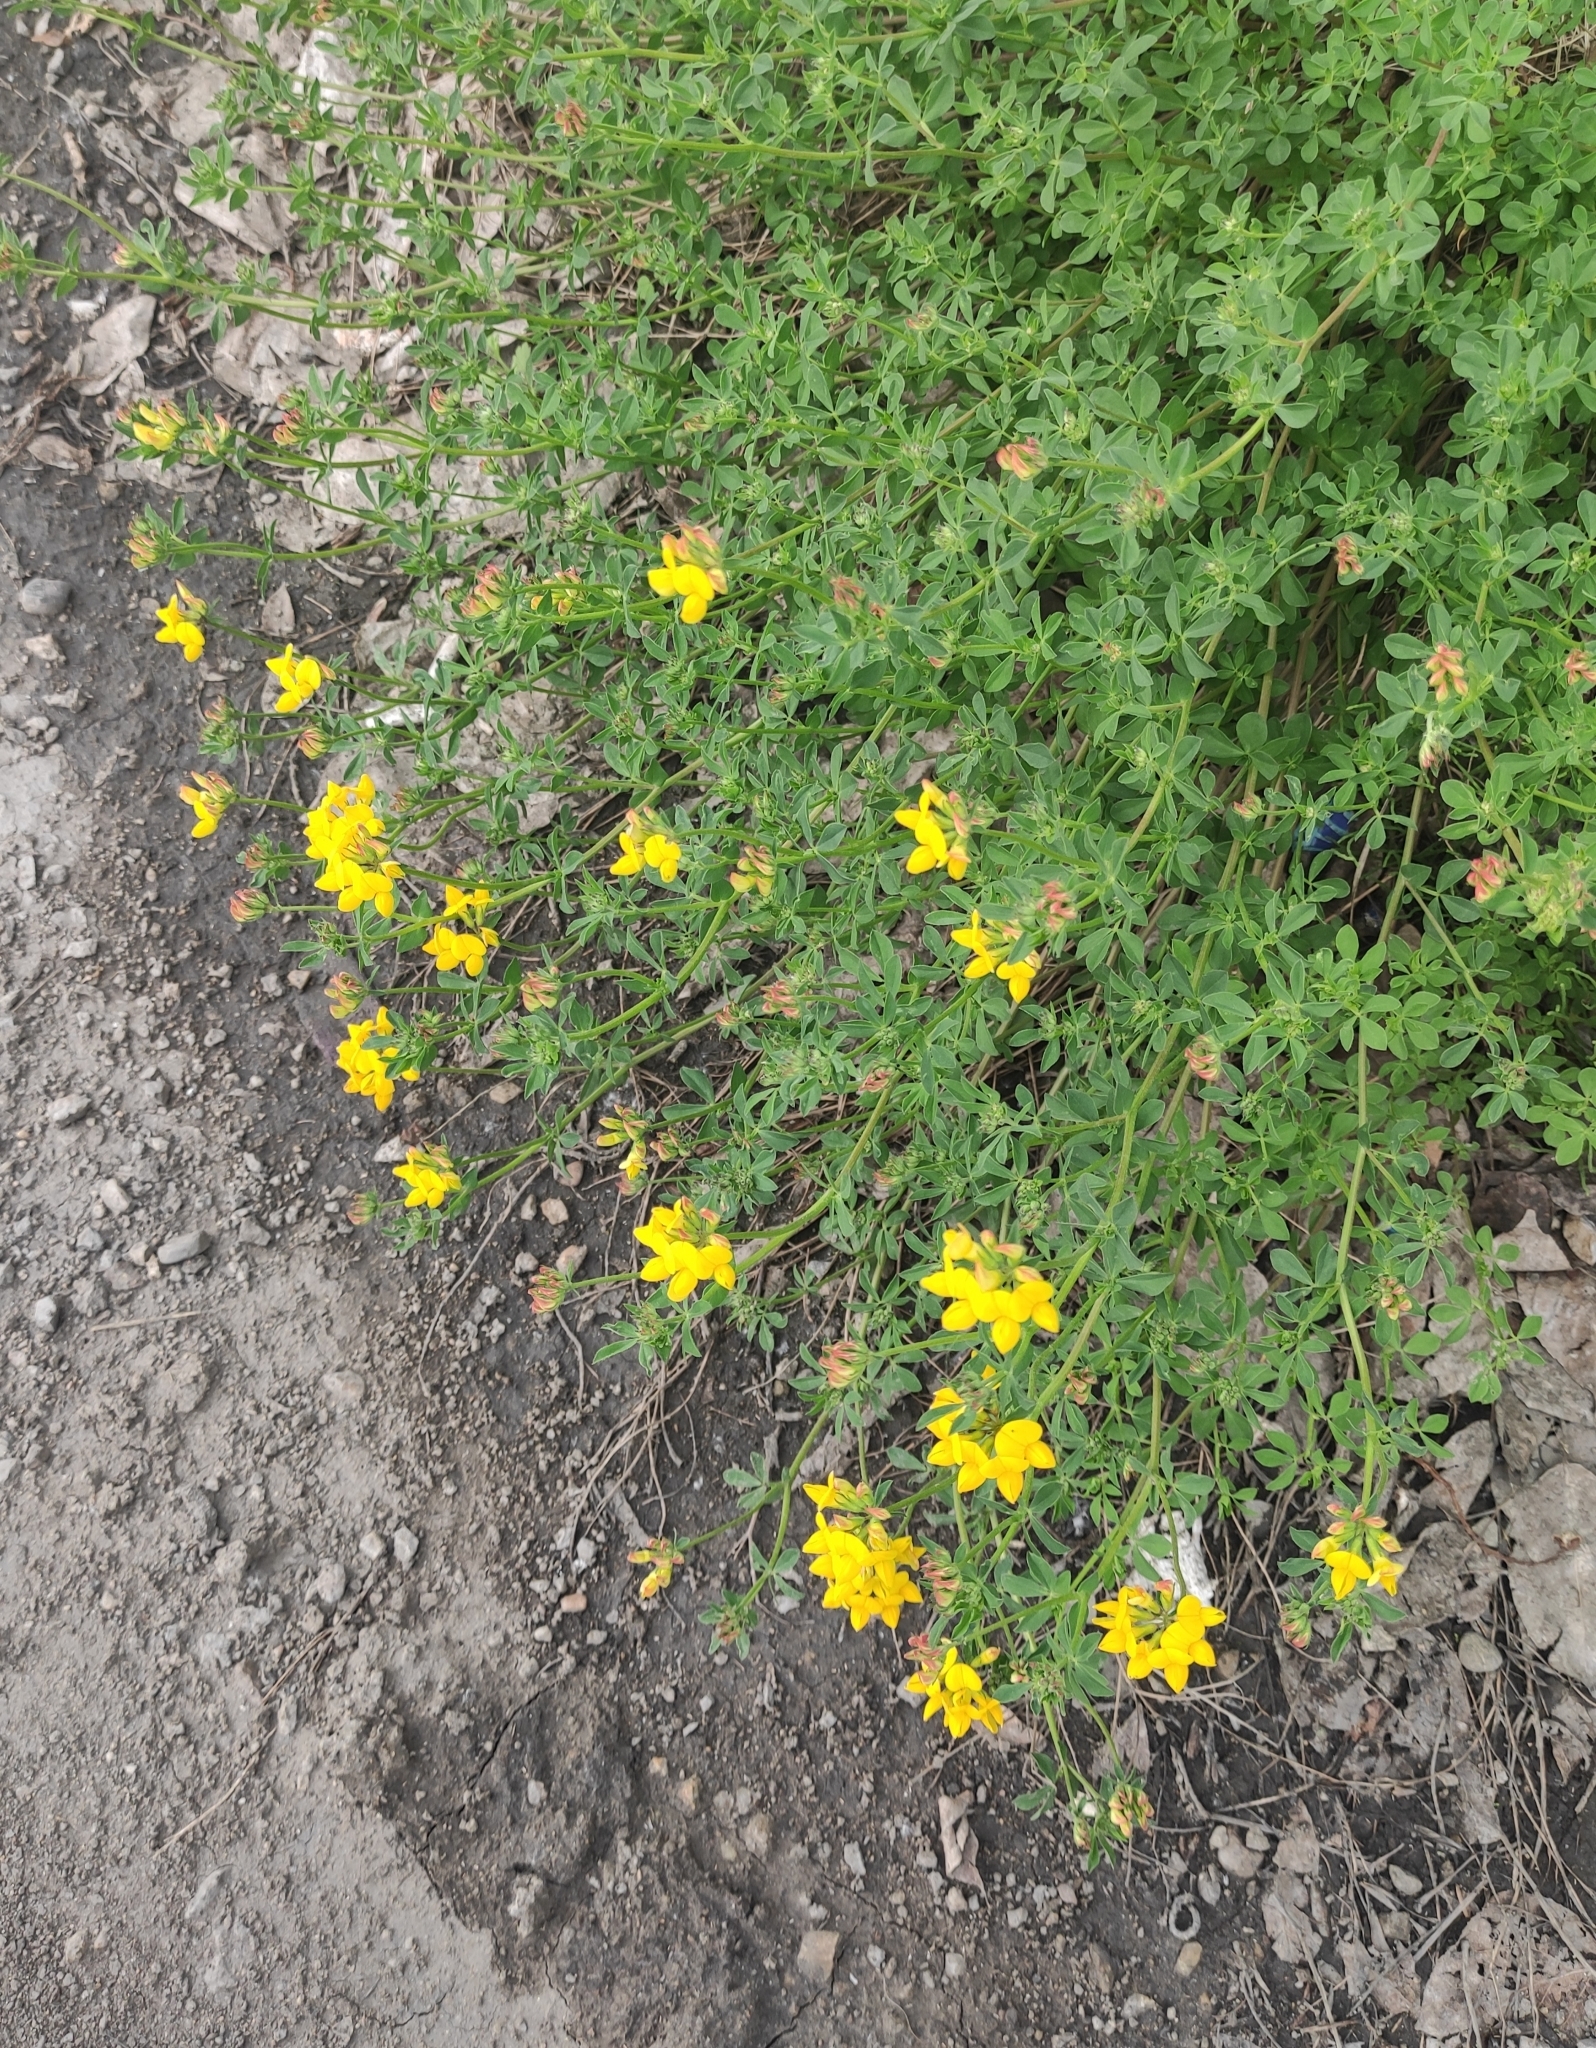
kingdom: Plantae
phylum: Tracheophyta
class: Magnoliopsida
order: Fabales
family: Fabaceae
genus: Lotus
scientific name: Lotus corniculatus
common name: Common bird's-foot-trefoil
